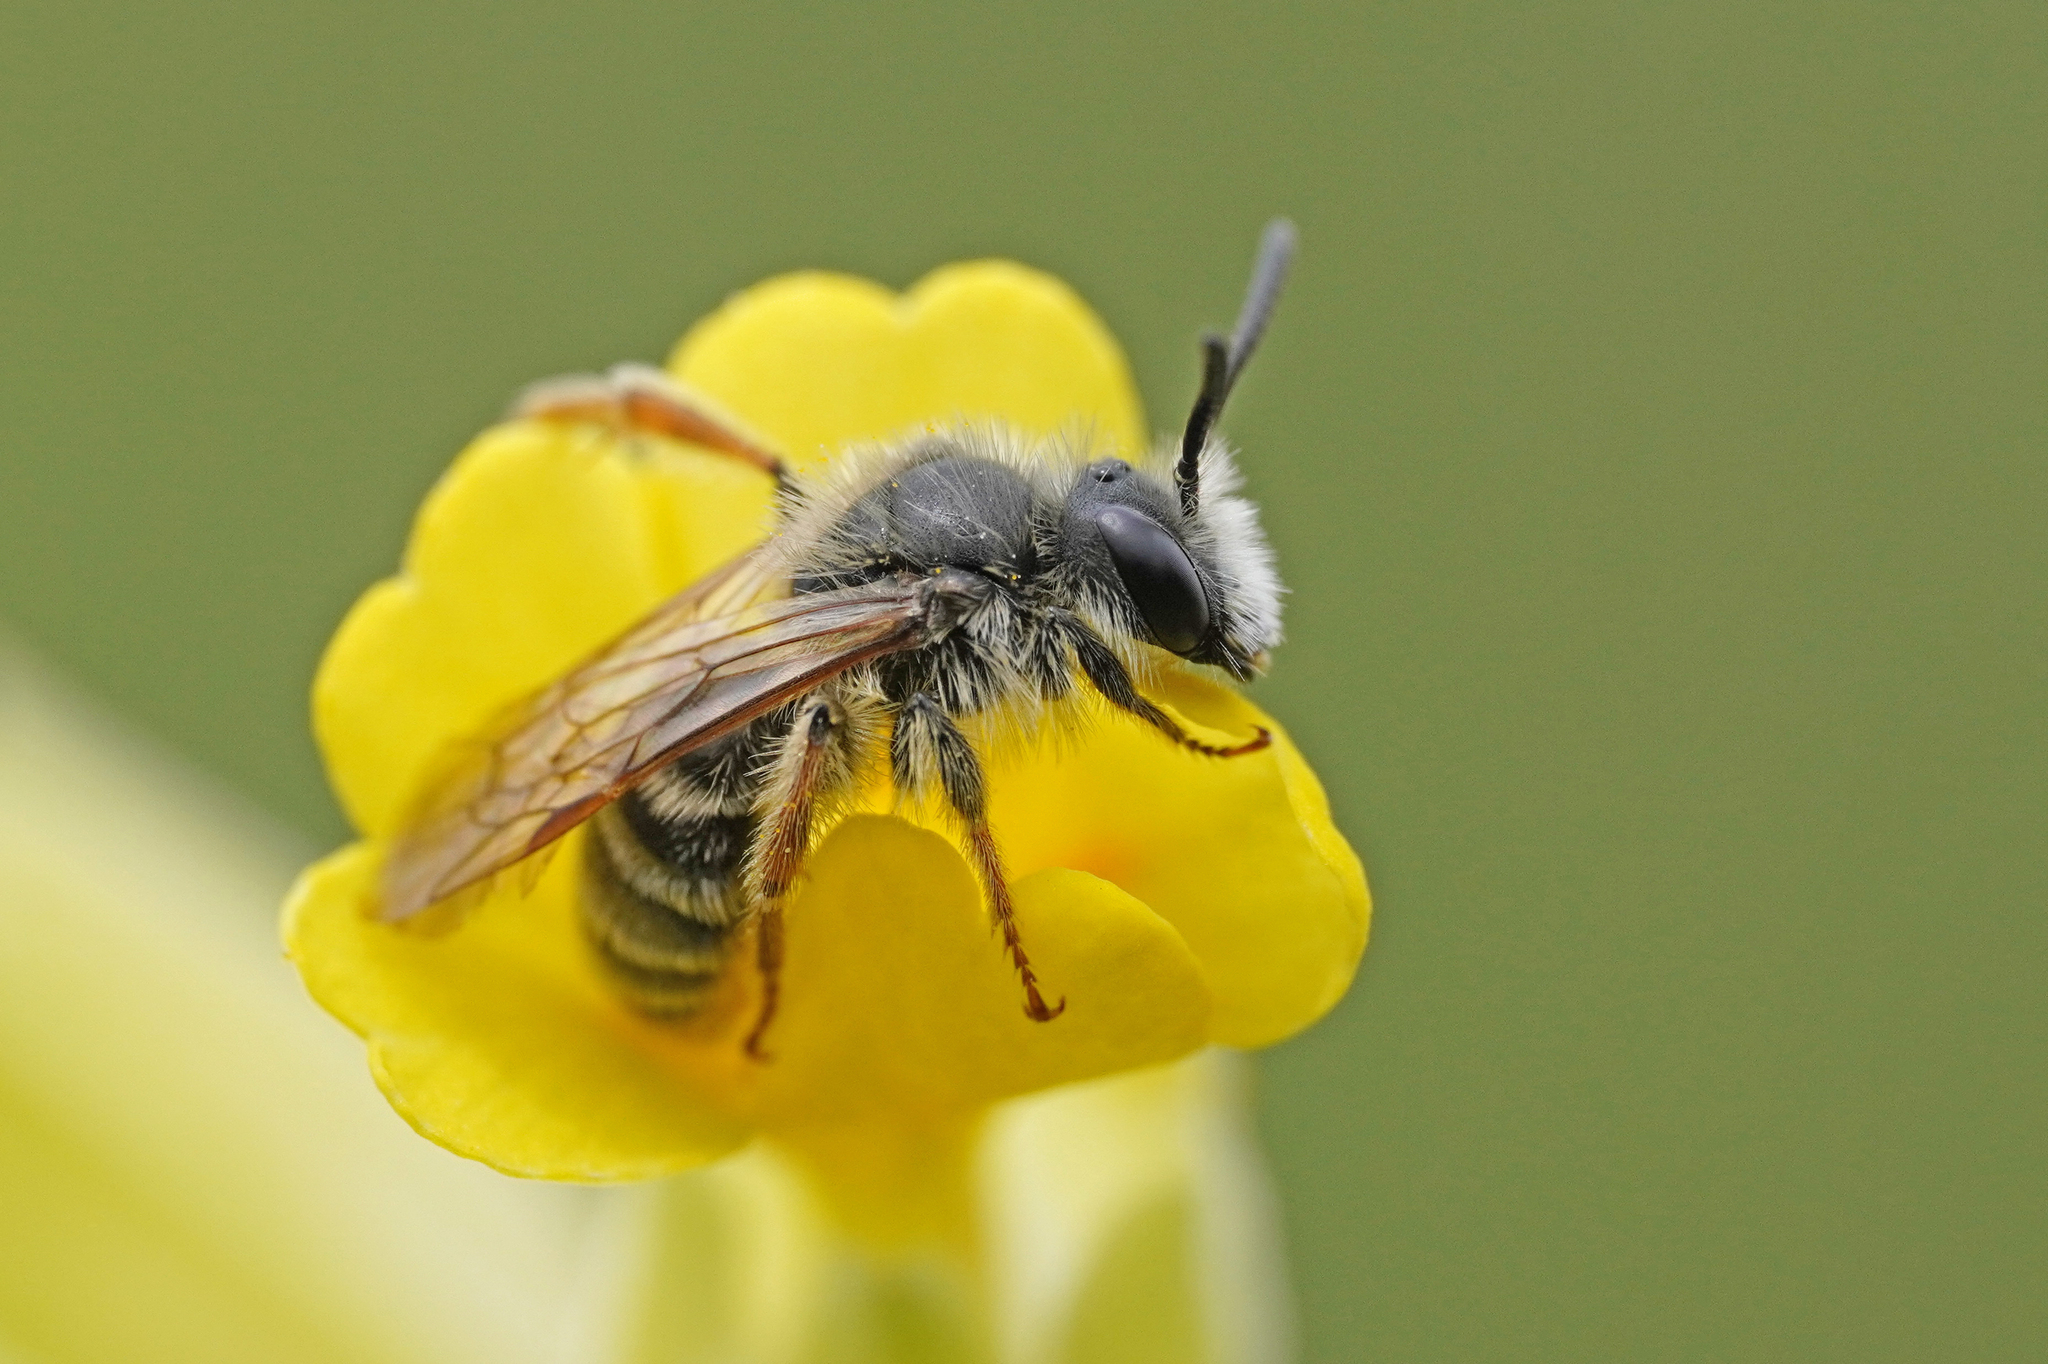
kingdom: Animalia
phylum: Arthropoda
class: Insecta
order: Hymenoptera
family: Andrenidae
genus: Andrena
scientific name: Andrena florivaga
